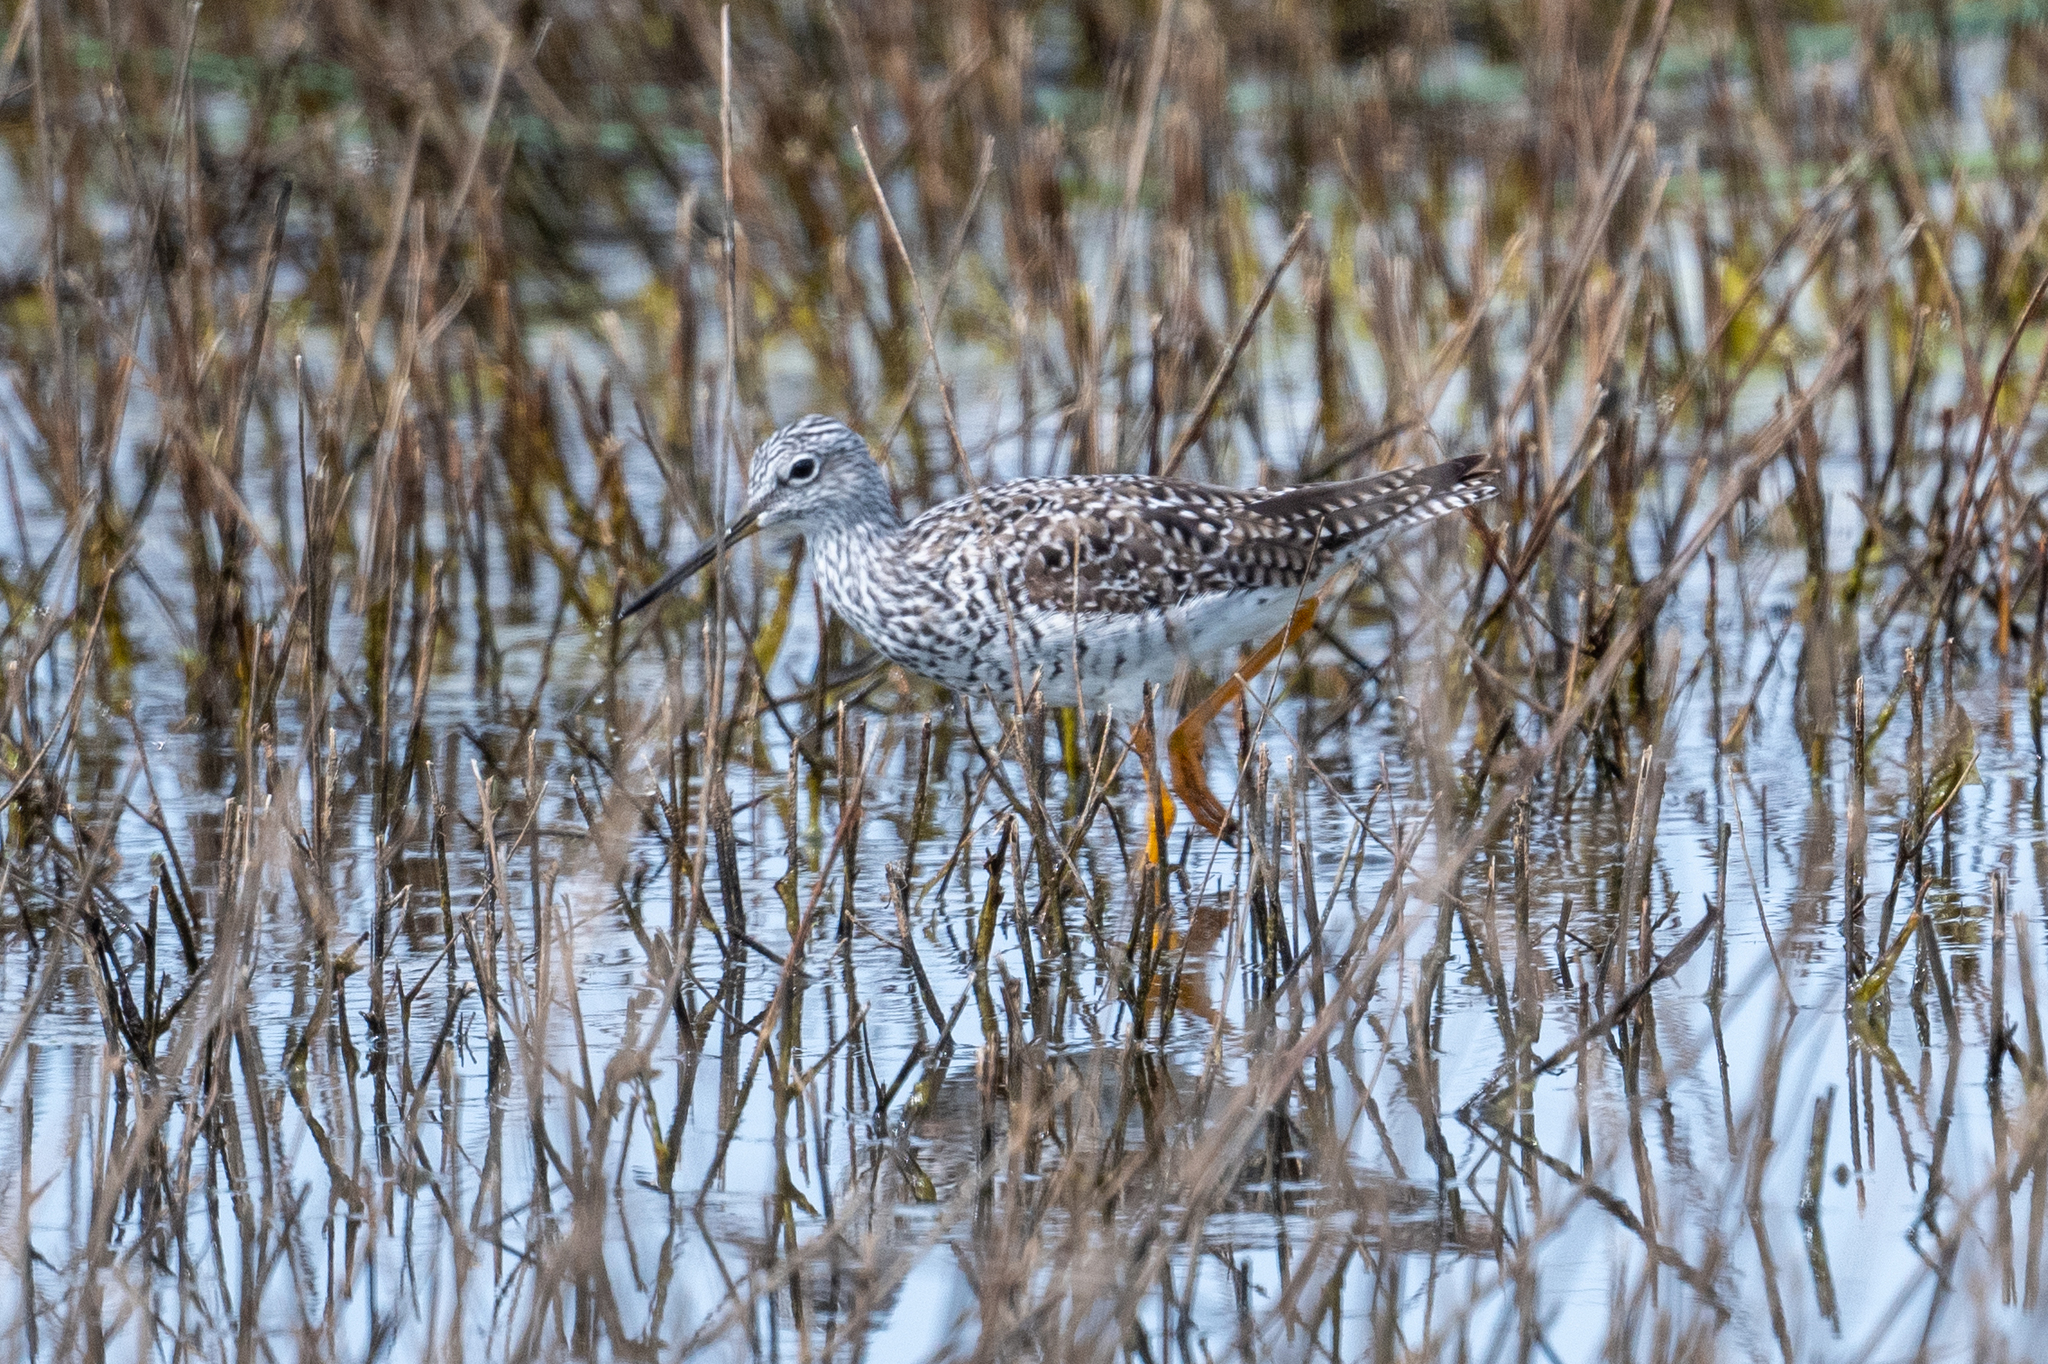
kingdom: Animalia
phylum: Chordata
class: Aves
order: Charadriiformes
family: Scolopacidae
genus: Tringa
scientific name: Tringa melanoleuca
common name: Greater yellowlegs
